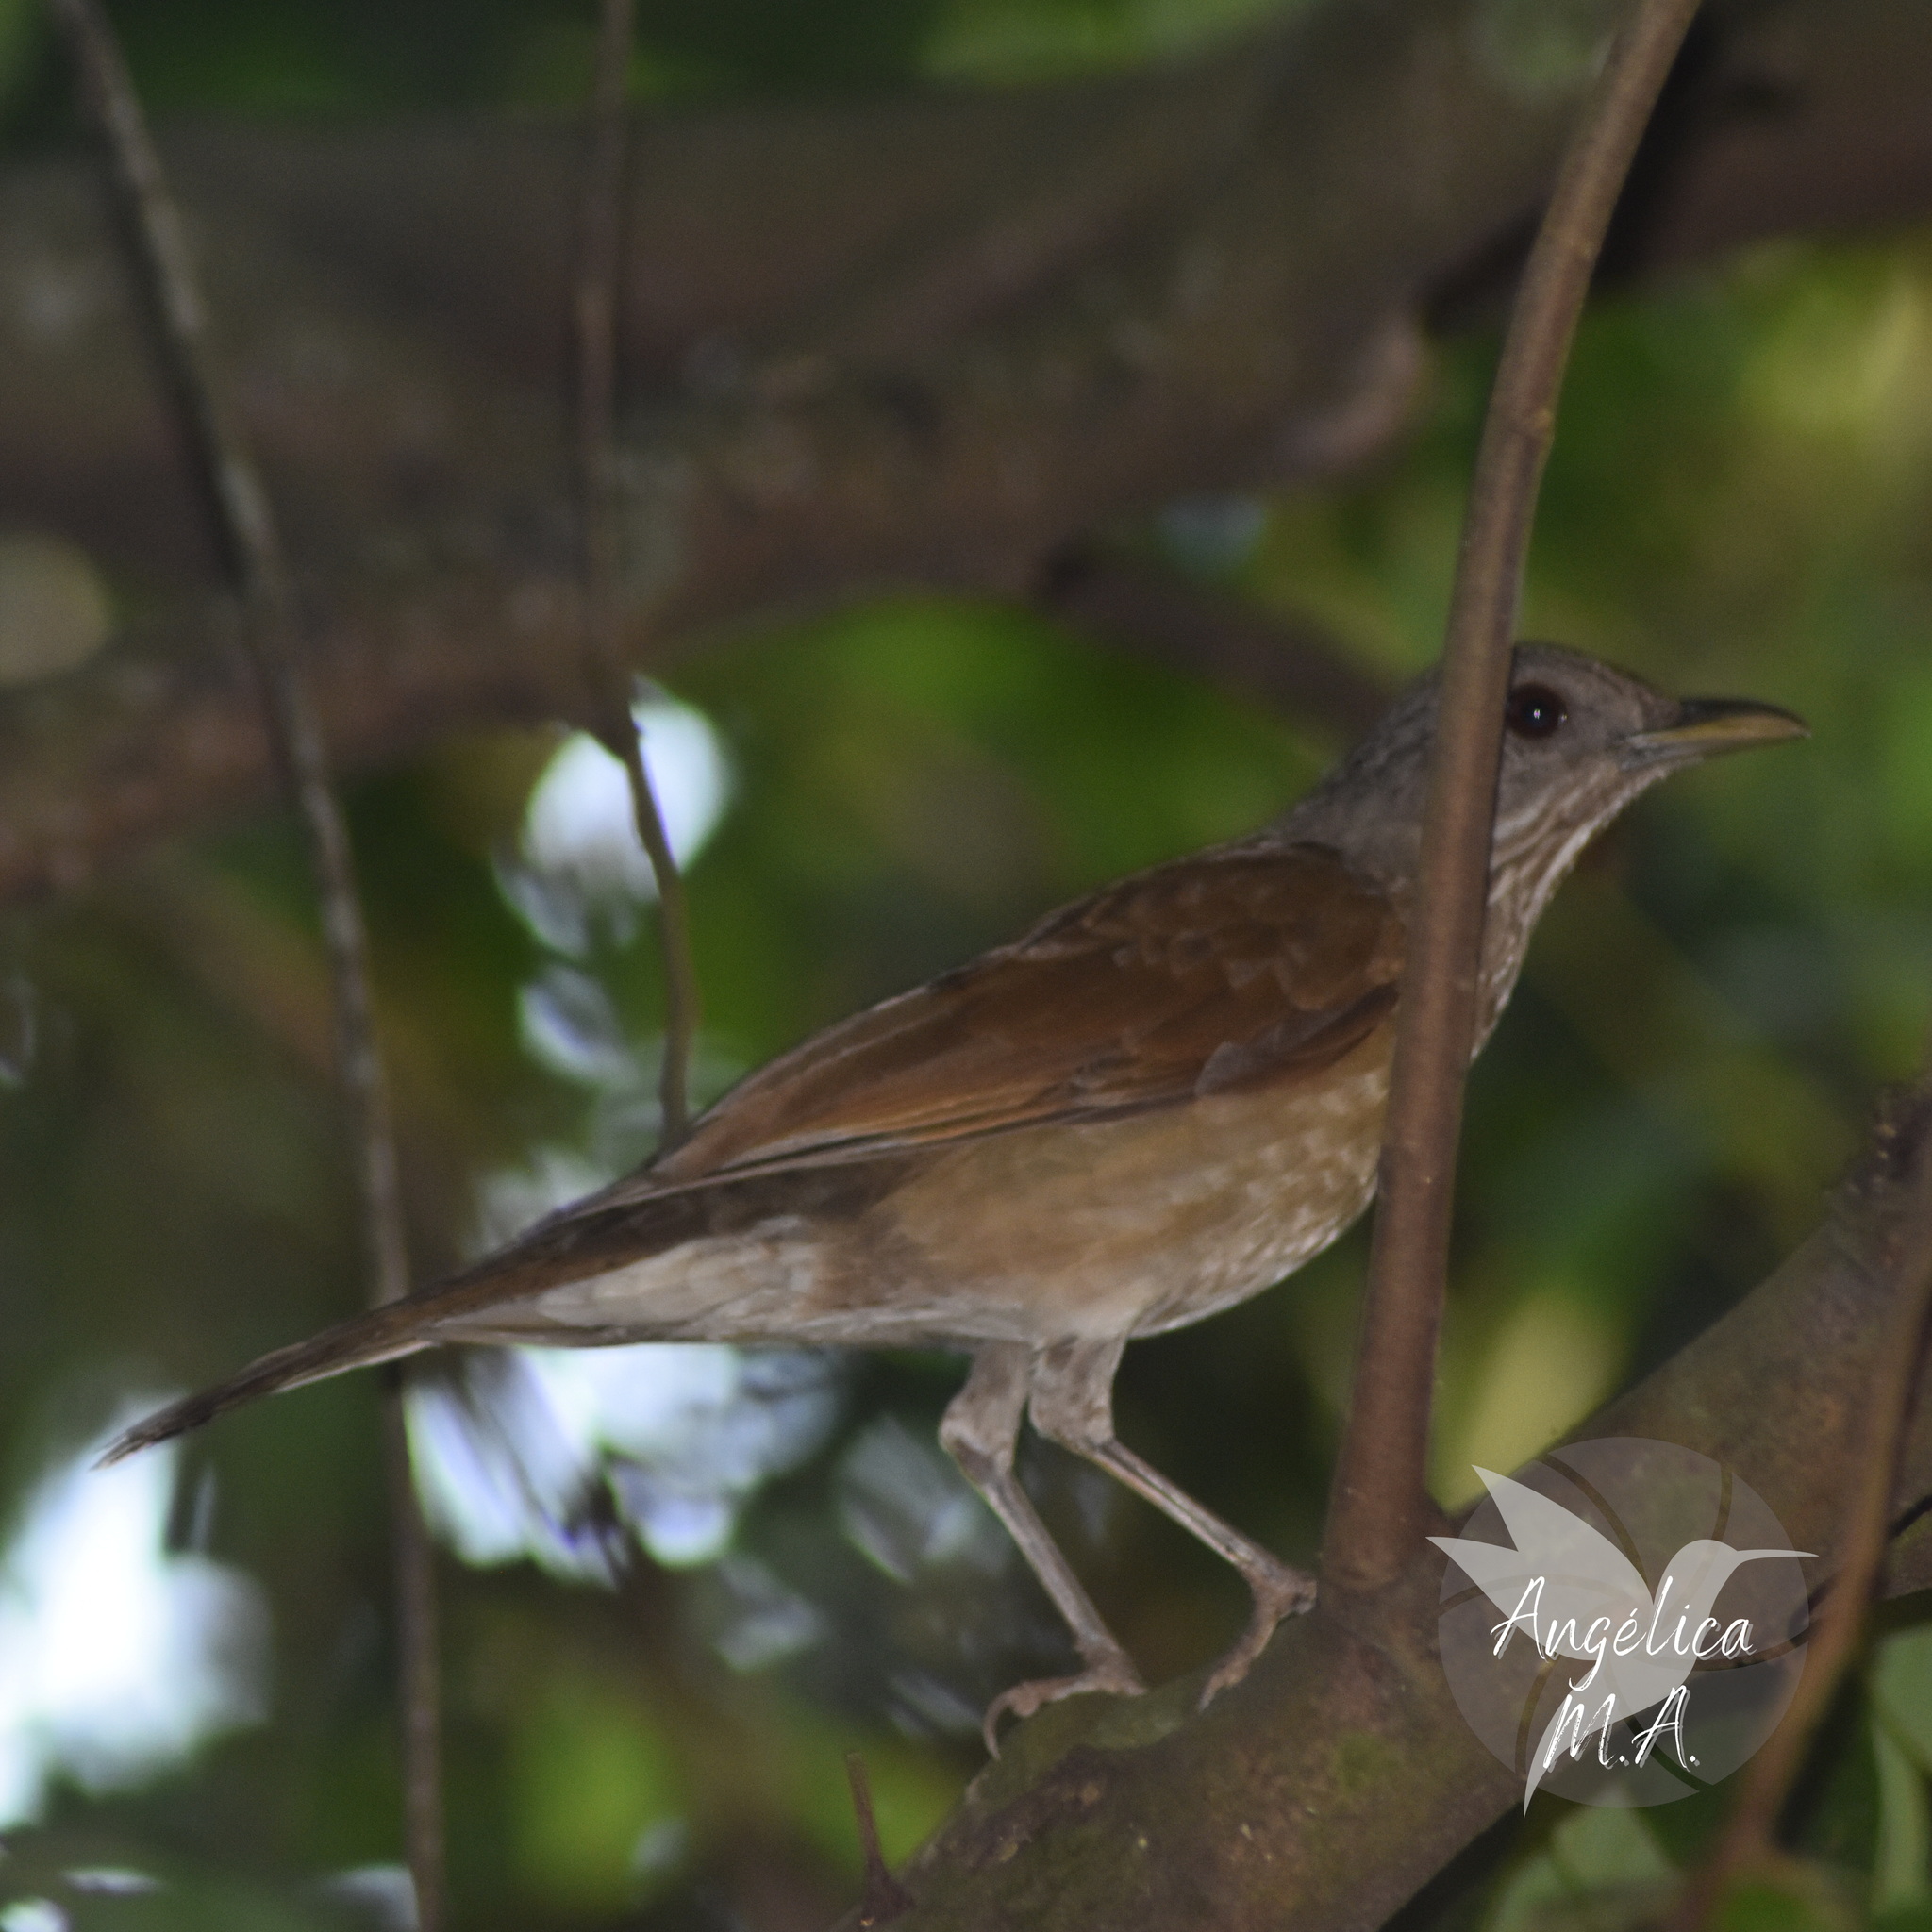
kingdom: Animalia
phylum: Chordata
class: Aves
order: Passeriformes
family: Turdidae
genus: Turdus
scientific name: Turdus leucomelas
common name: Pale-breasted thrush
